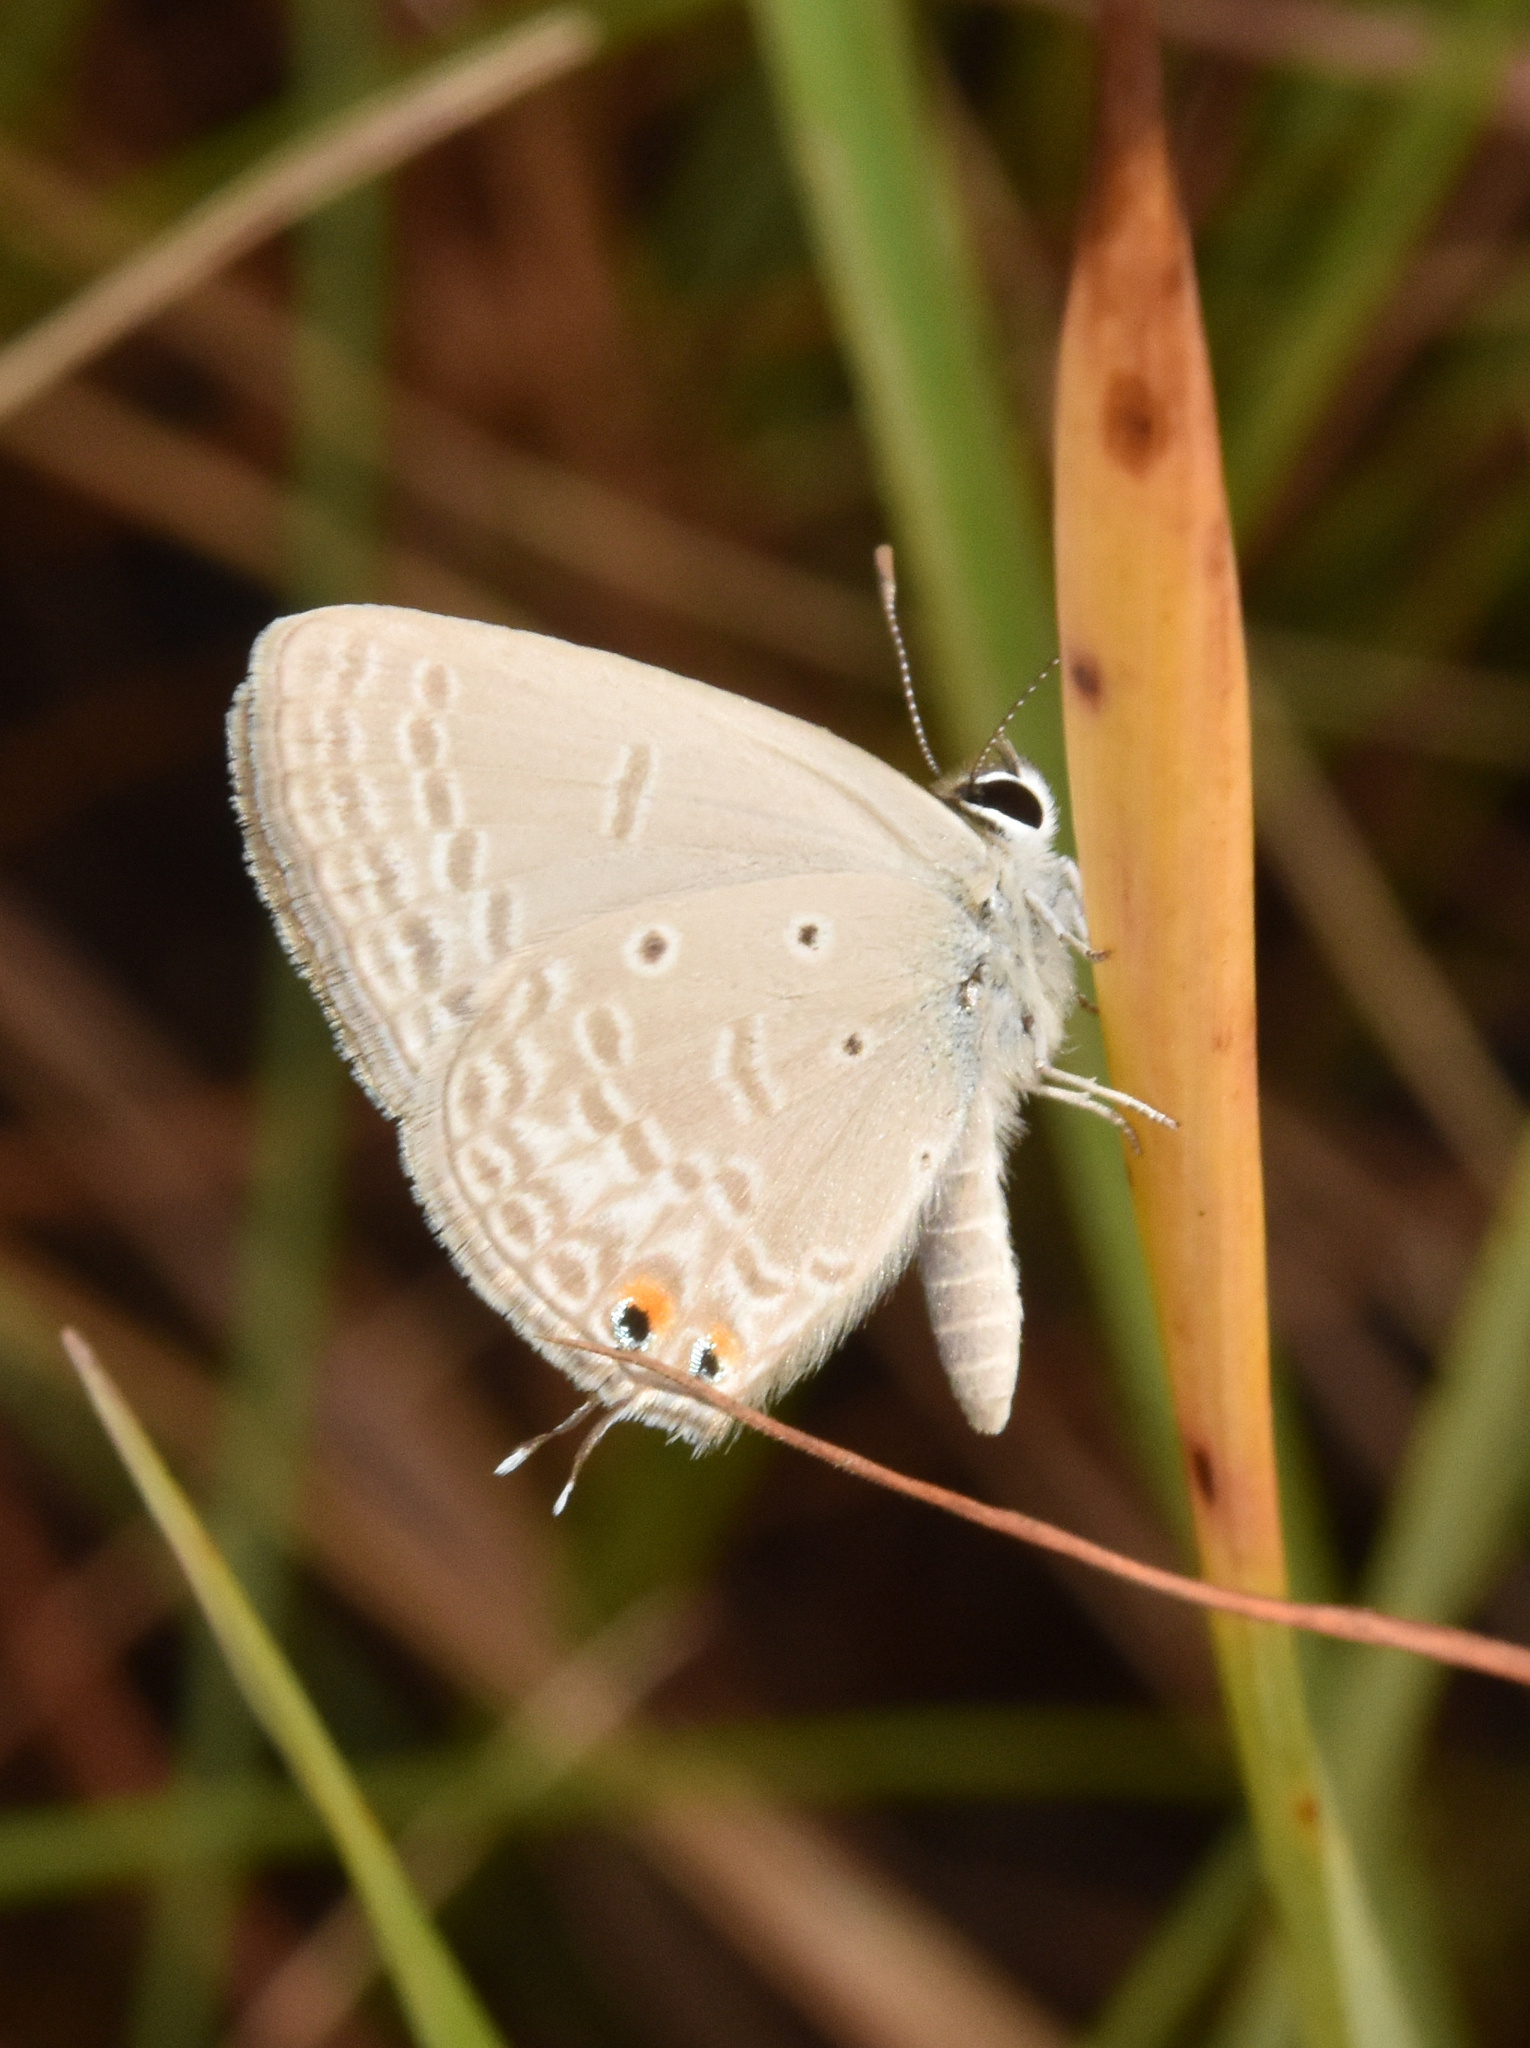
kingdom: Animalia
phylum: Arthropoda
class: Insecta
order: Lepidoptera
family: Lycaenidae
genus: Euchrysops
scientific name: Euchrysops osiris
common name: African blue
